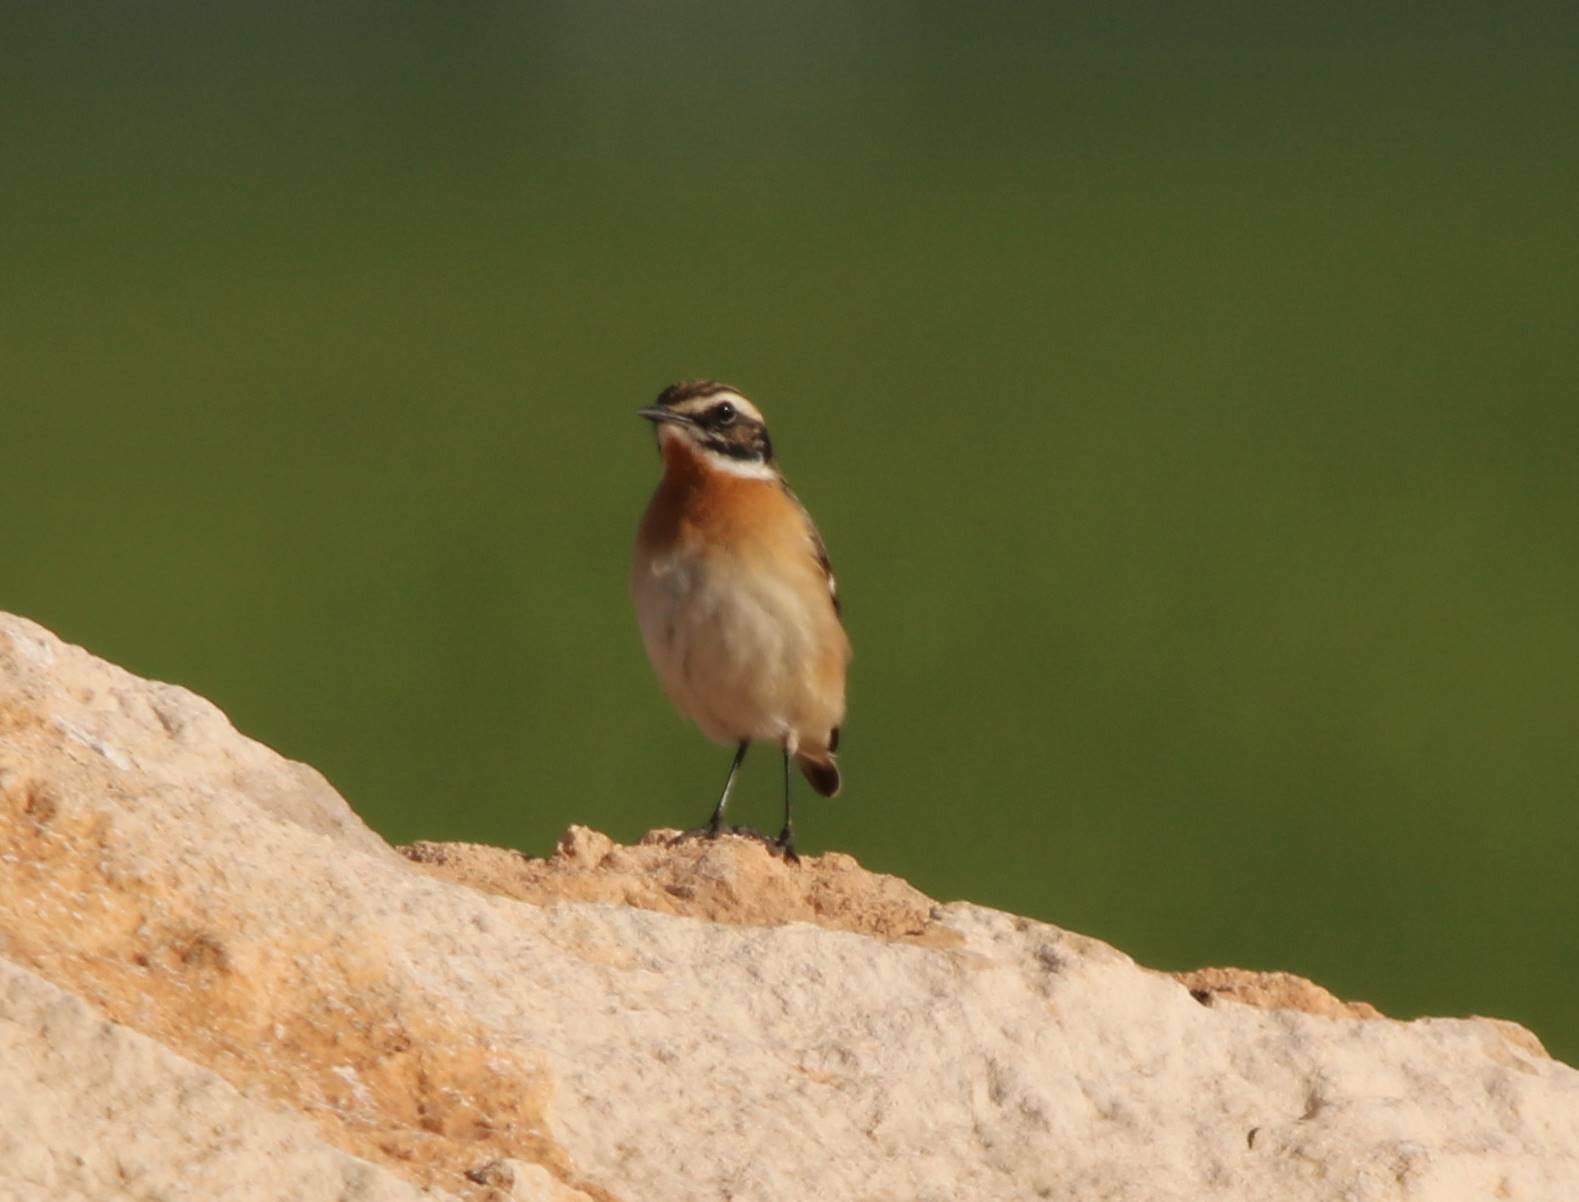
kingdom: Animalia
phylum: Chordata
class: Aves
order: Passeriformes
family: Muscicapidae
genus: Saxicola
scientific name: Saxicola rubetra
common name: Whinchat
